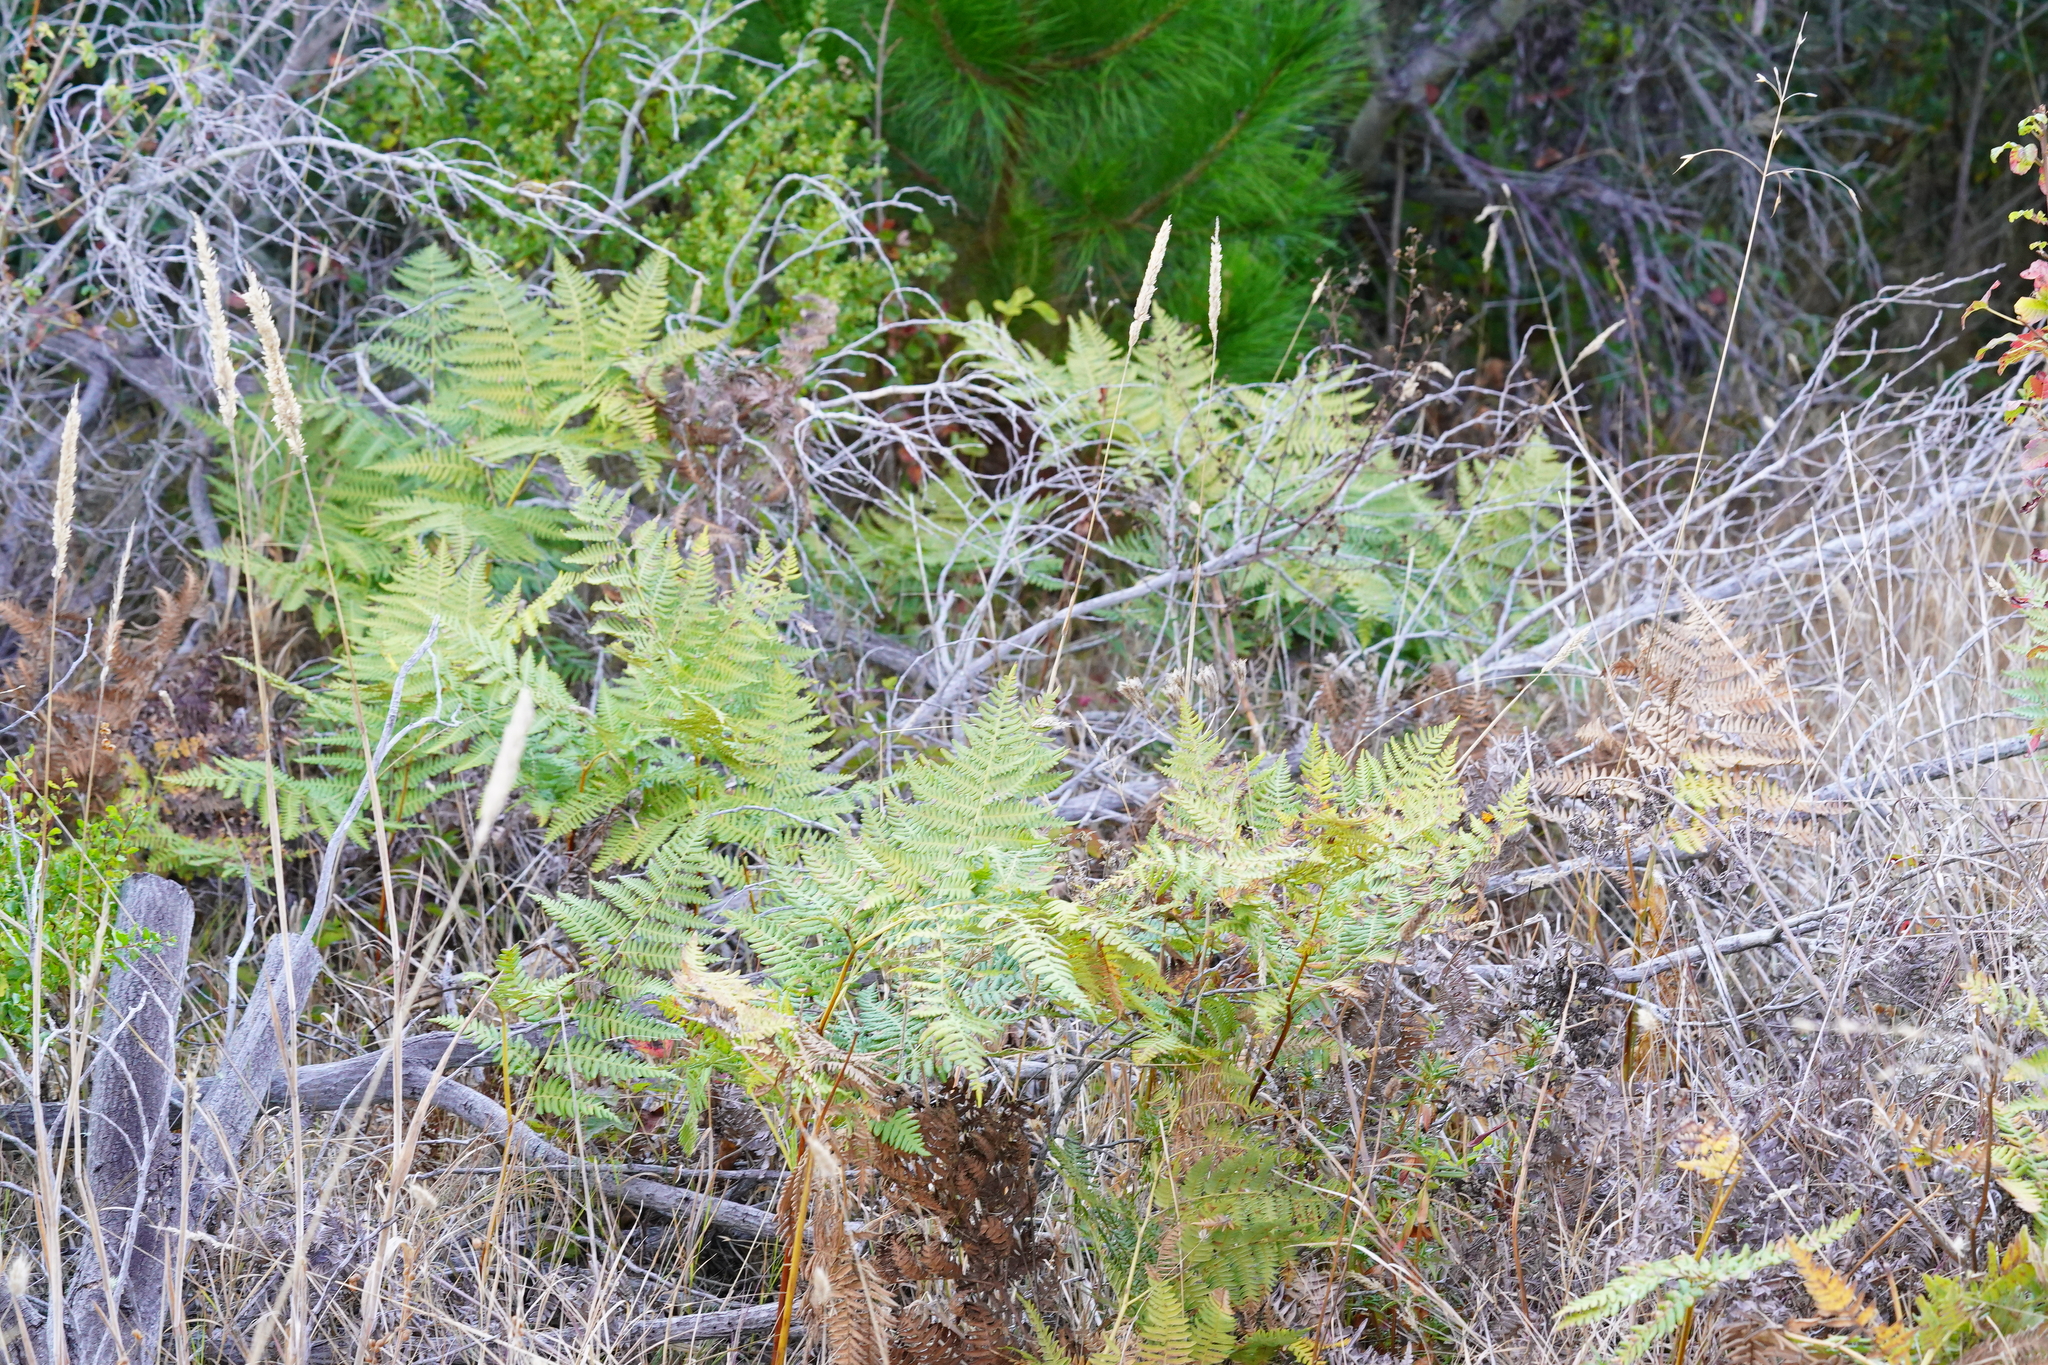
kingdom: Plantae
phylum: Tracheophyta
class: Polypodiopsida
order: Polypodiales
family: Dennstaedtiaceae
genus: Pteridium
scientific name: Pteridium aquilinum
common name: Bracken
